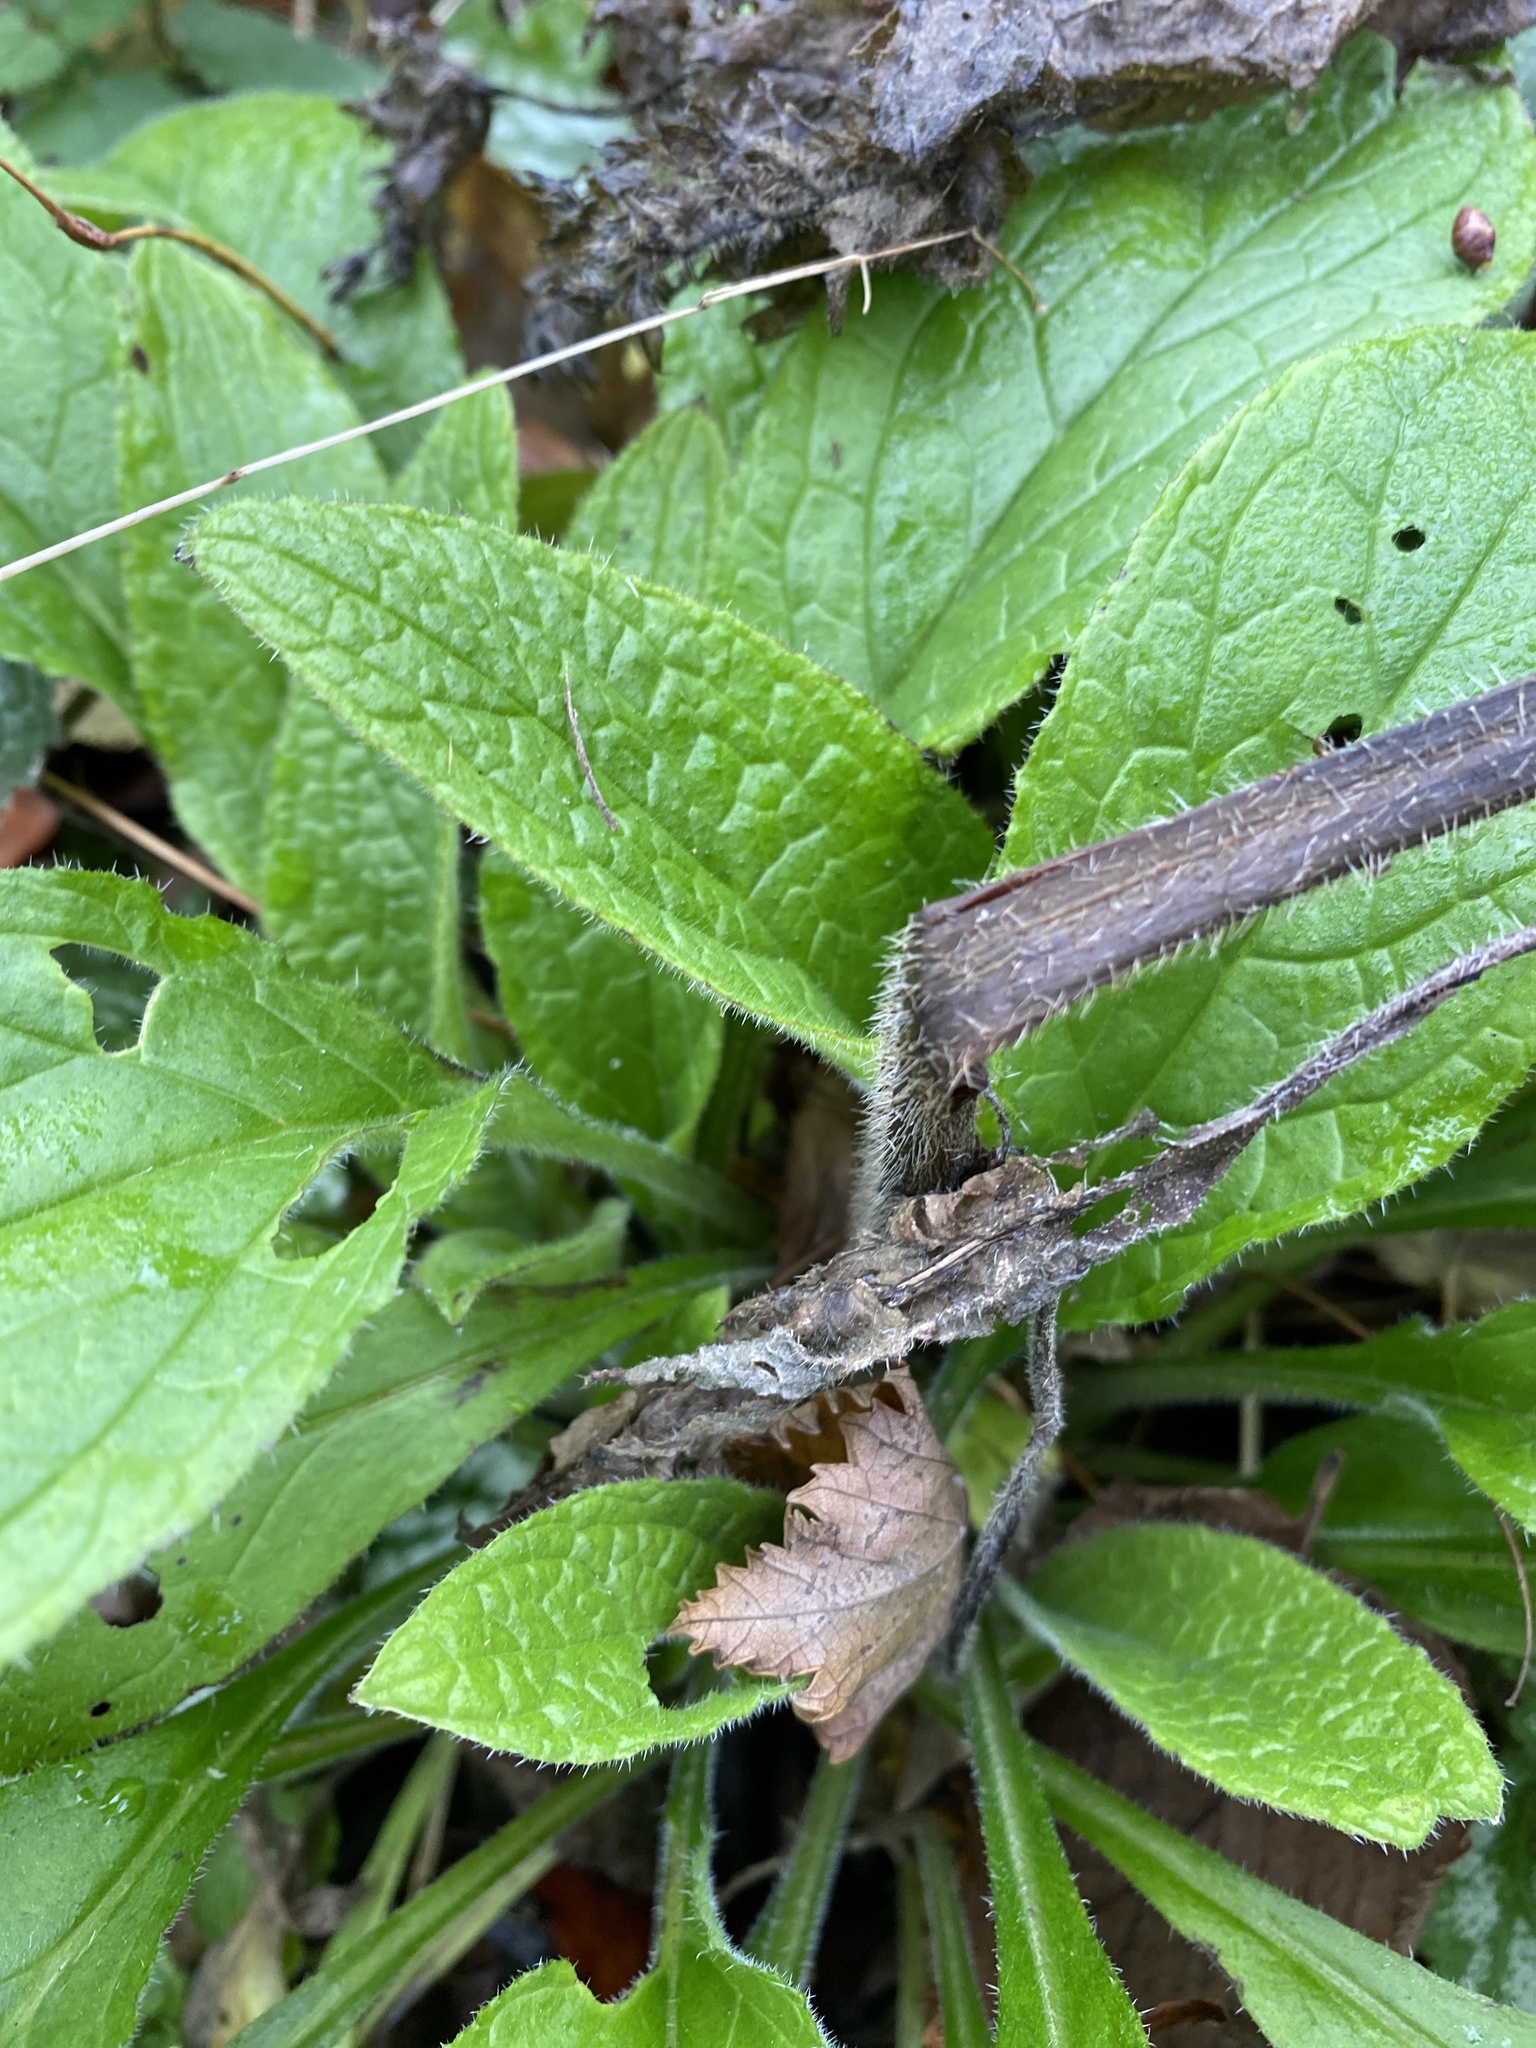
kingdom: Plantae
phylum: Tracheophyta
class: Magnoliopsida
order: Boraginales
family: Boraginaceae
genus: Pentaglottis
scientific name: Pentaglottis sempervirens
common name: Green alkanet
